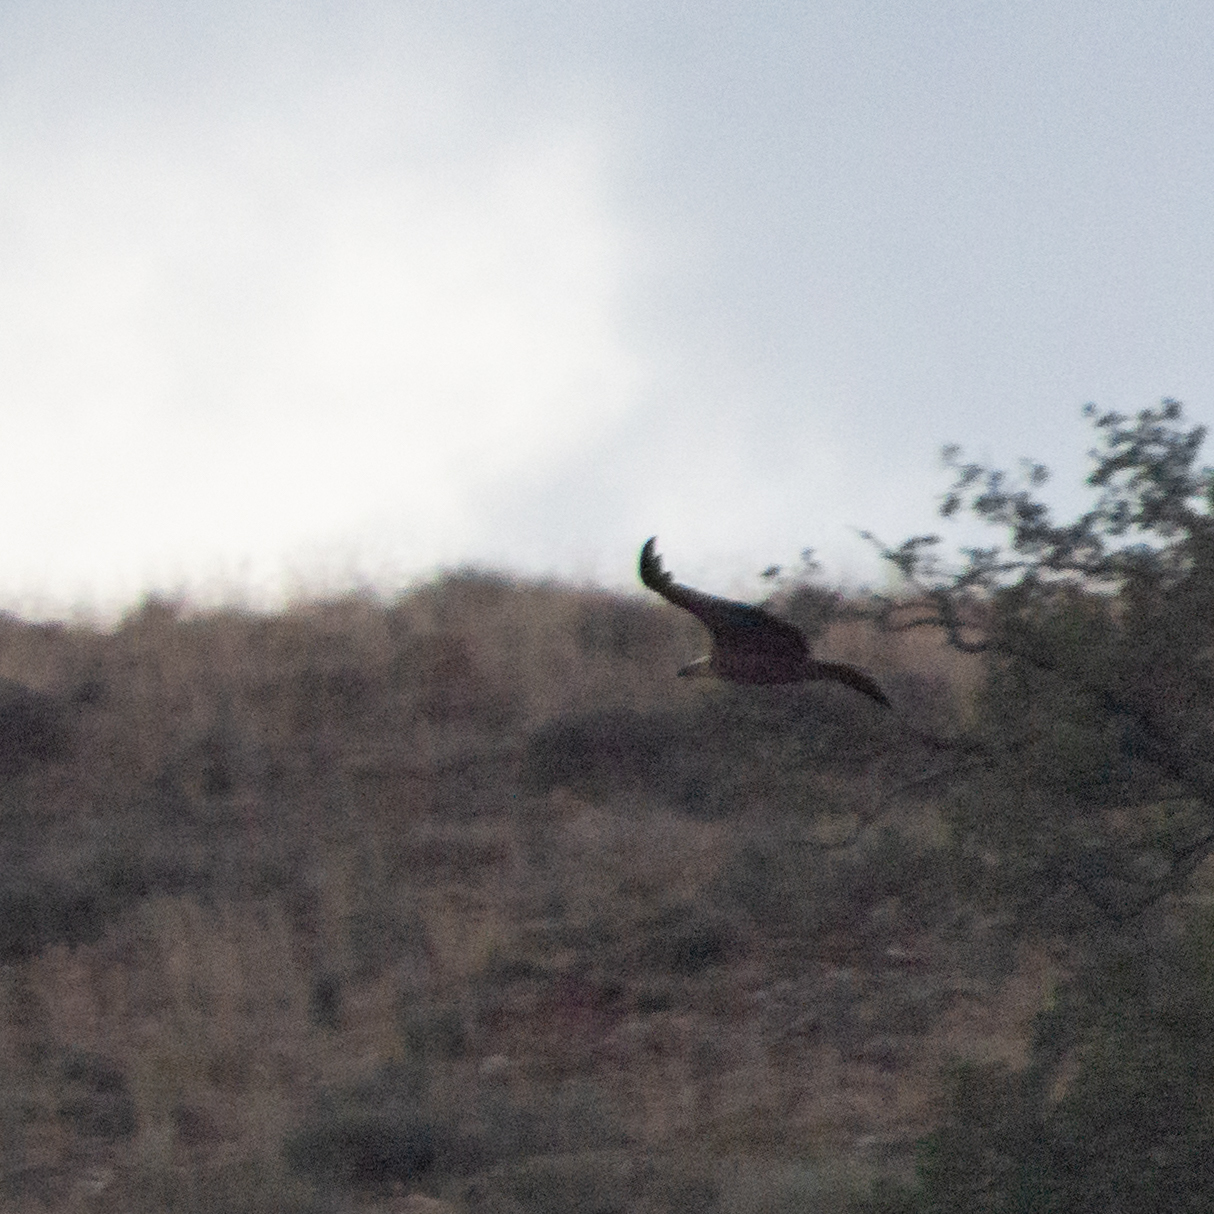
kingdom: Animalia
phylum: Chordata
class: Aves
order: Accipitriformes
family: Accipitridae
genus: Gyps
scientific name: Gyps fulvus
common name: Griffon vulture
